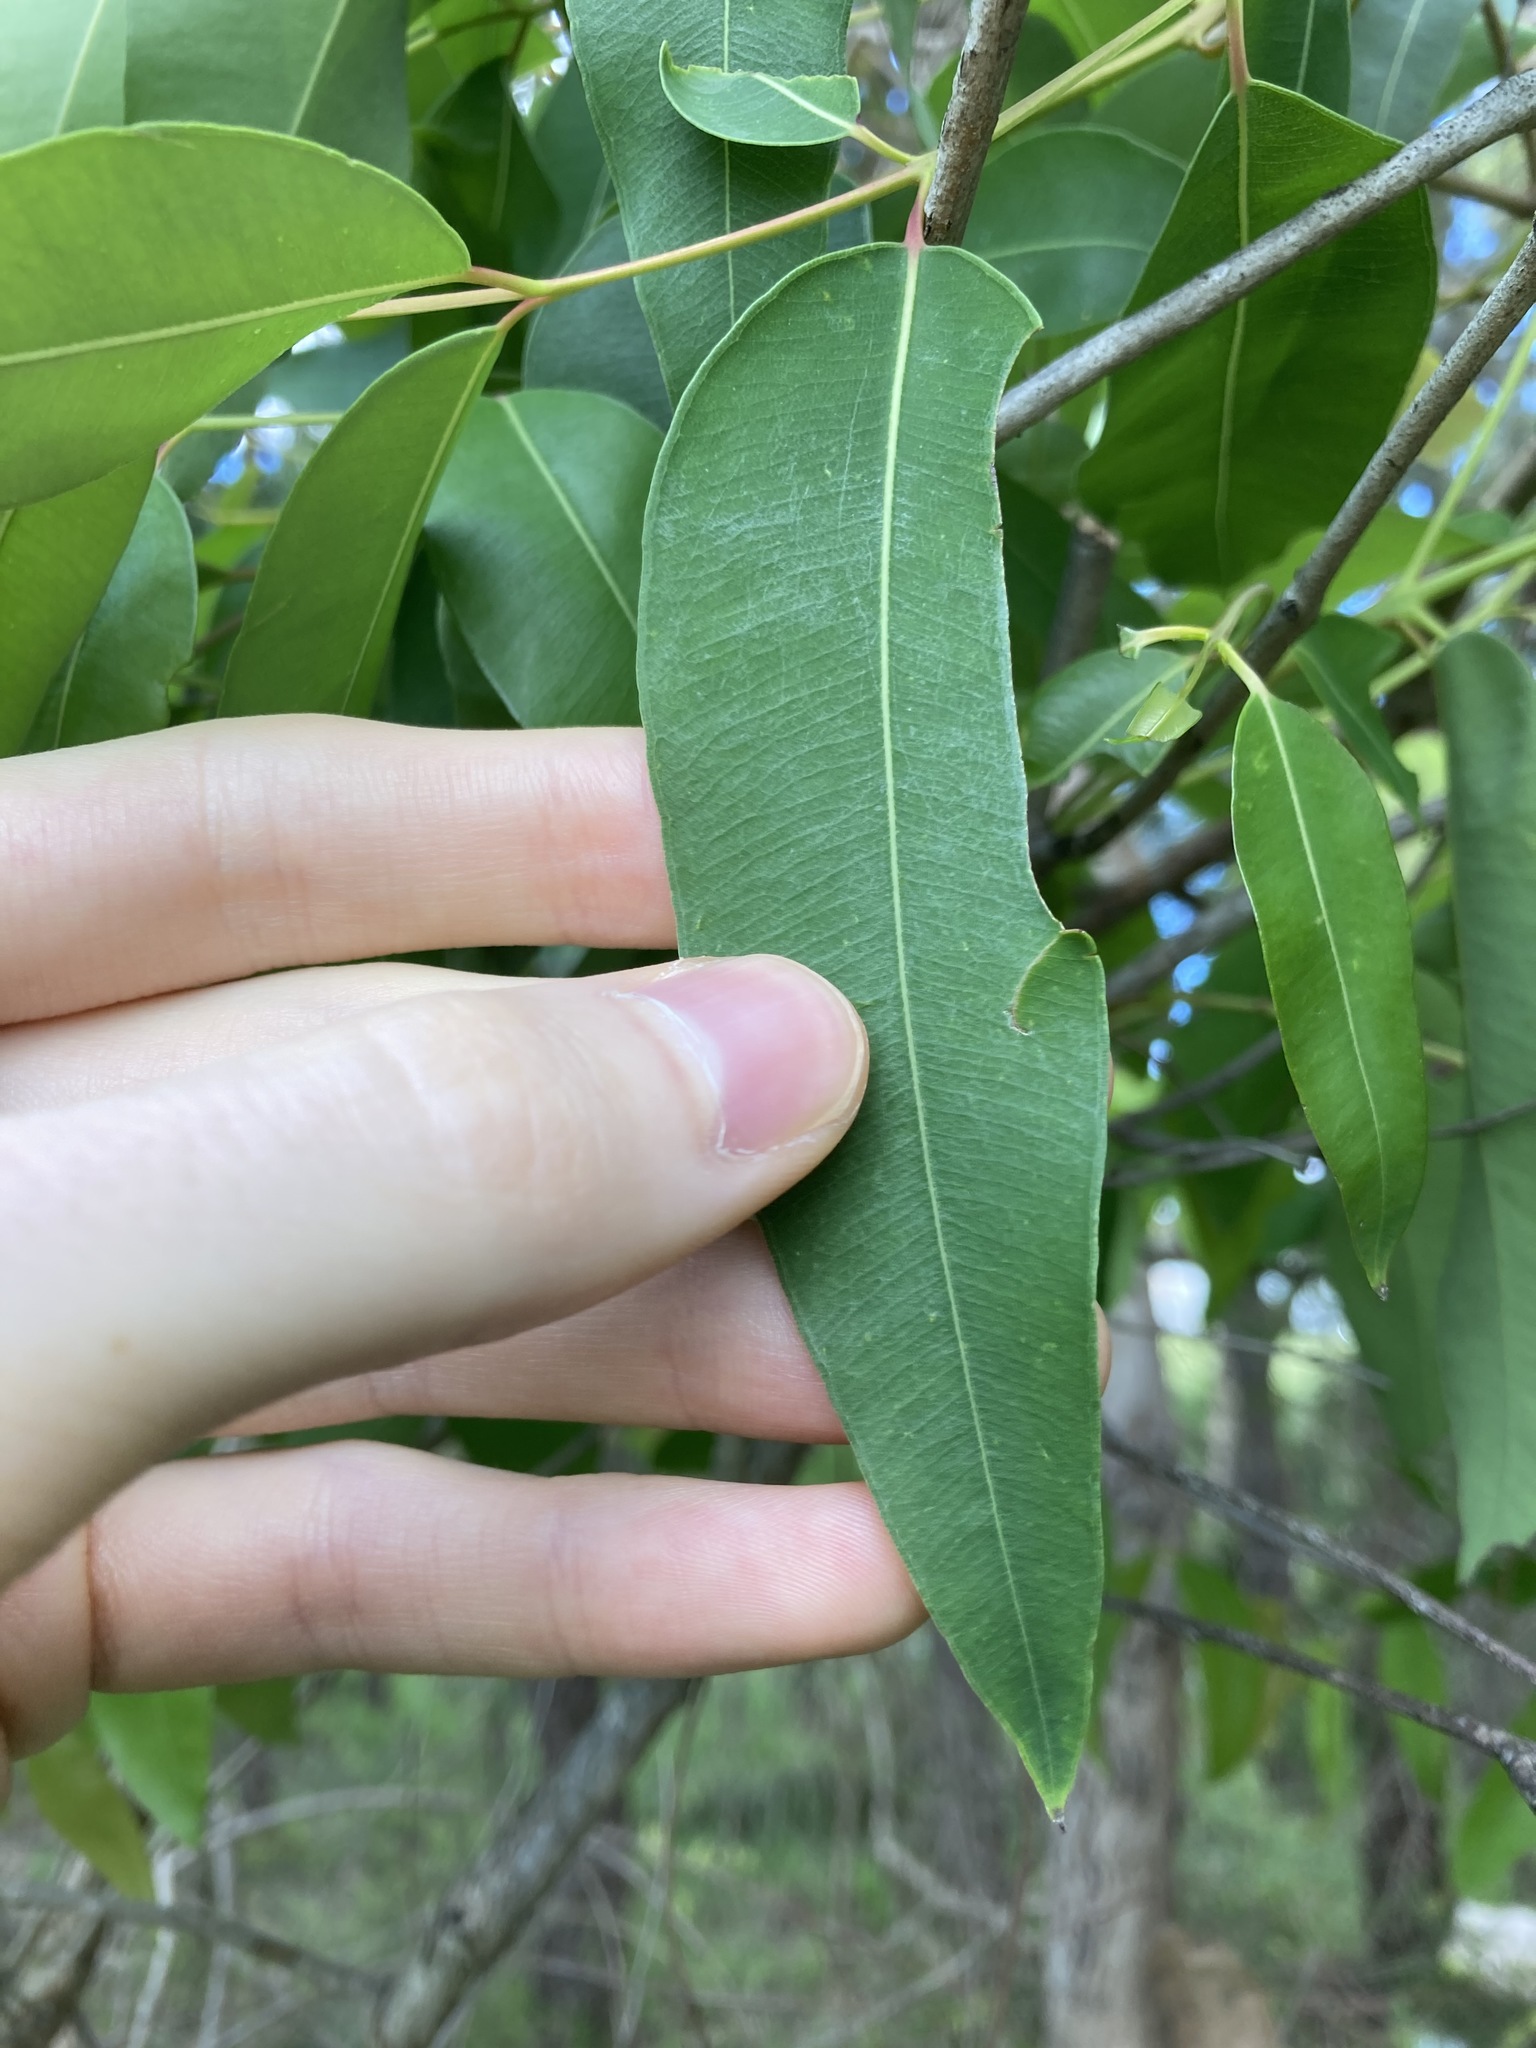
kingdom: Plantae
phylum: Tracheophyta
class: Magnoliopsida
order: Myrtales
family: Myrtaceae
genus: Angophora
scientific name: Angophora floribunda
